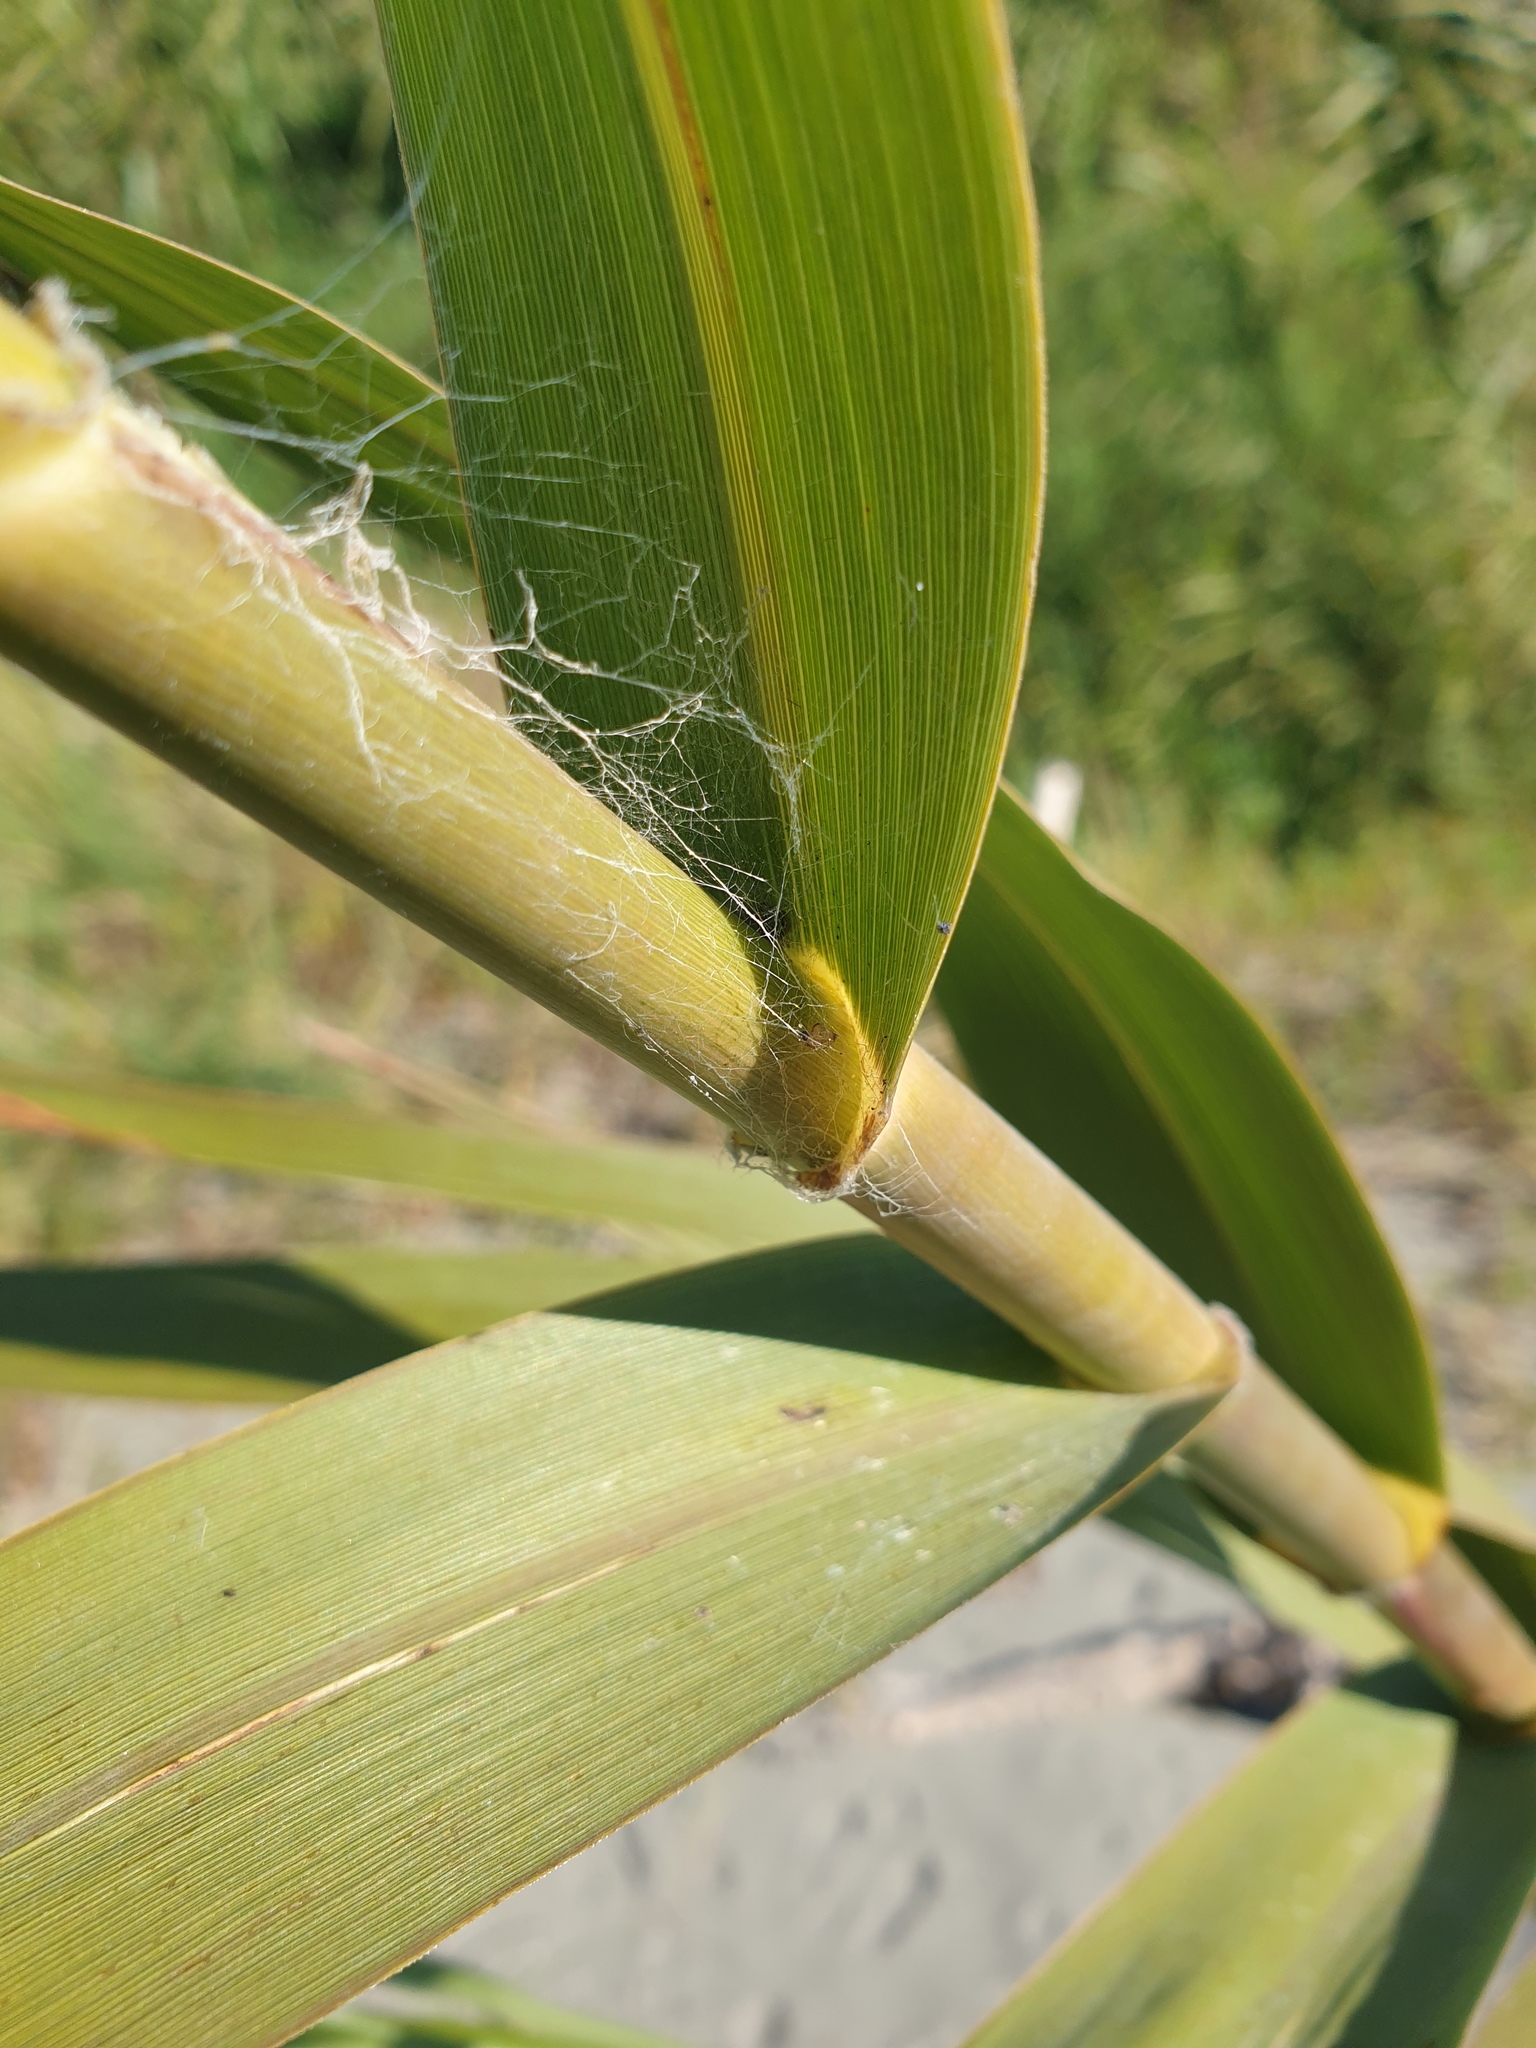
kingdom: Plantae
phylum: Tracheophyta
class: Liliopsida
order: Poales
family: Poaceae
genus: Phragmites
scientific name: Phragmites karka
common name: Tropical reed
